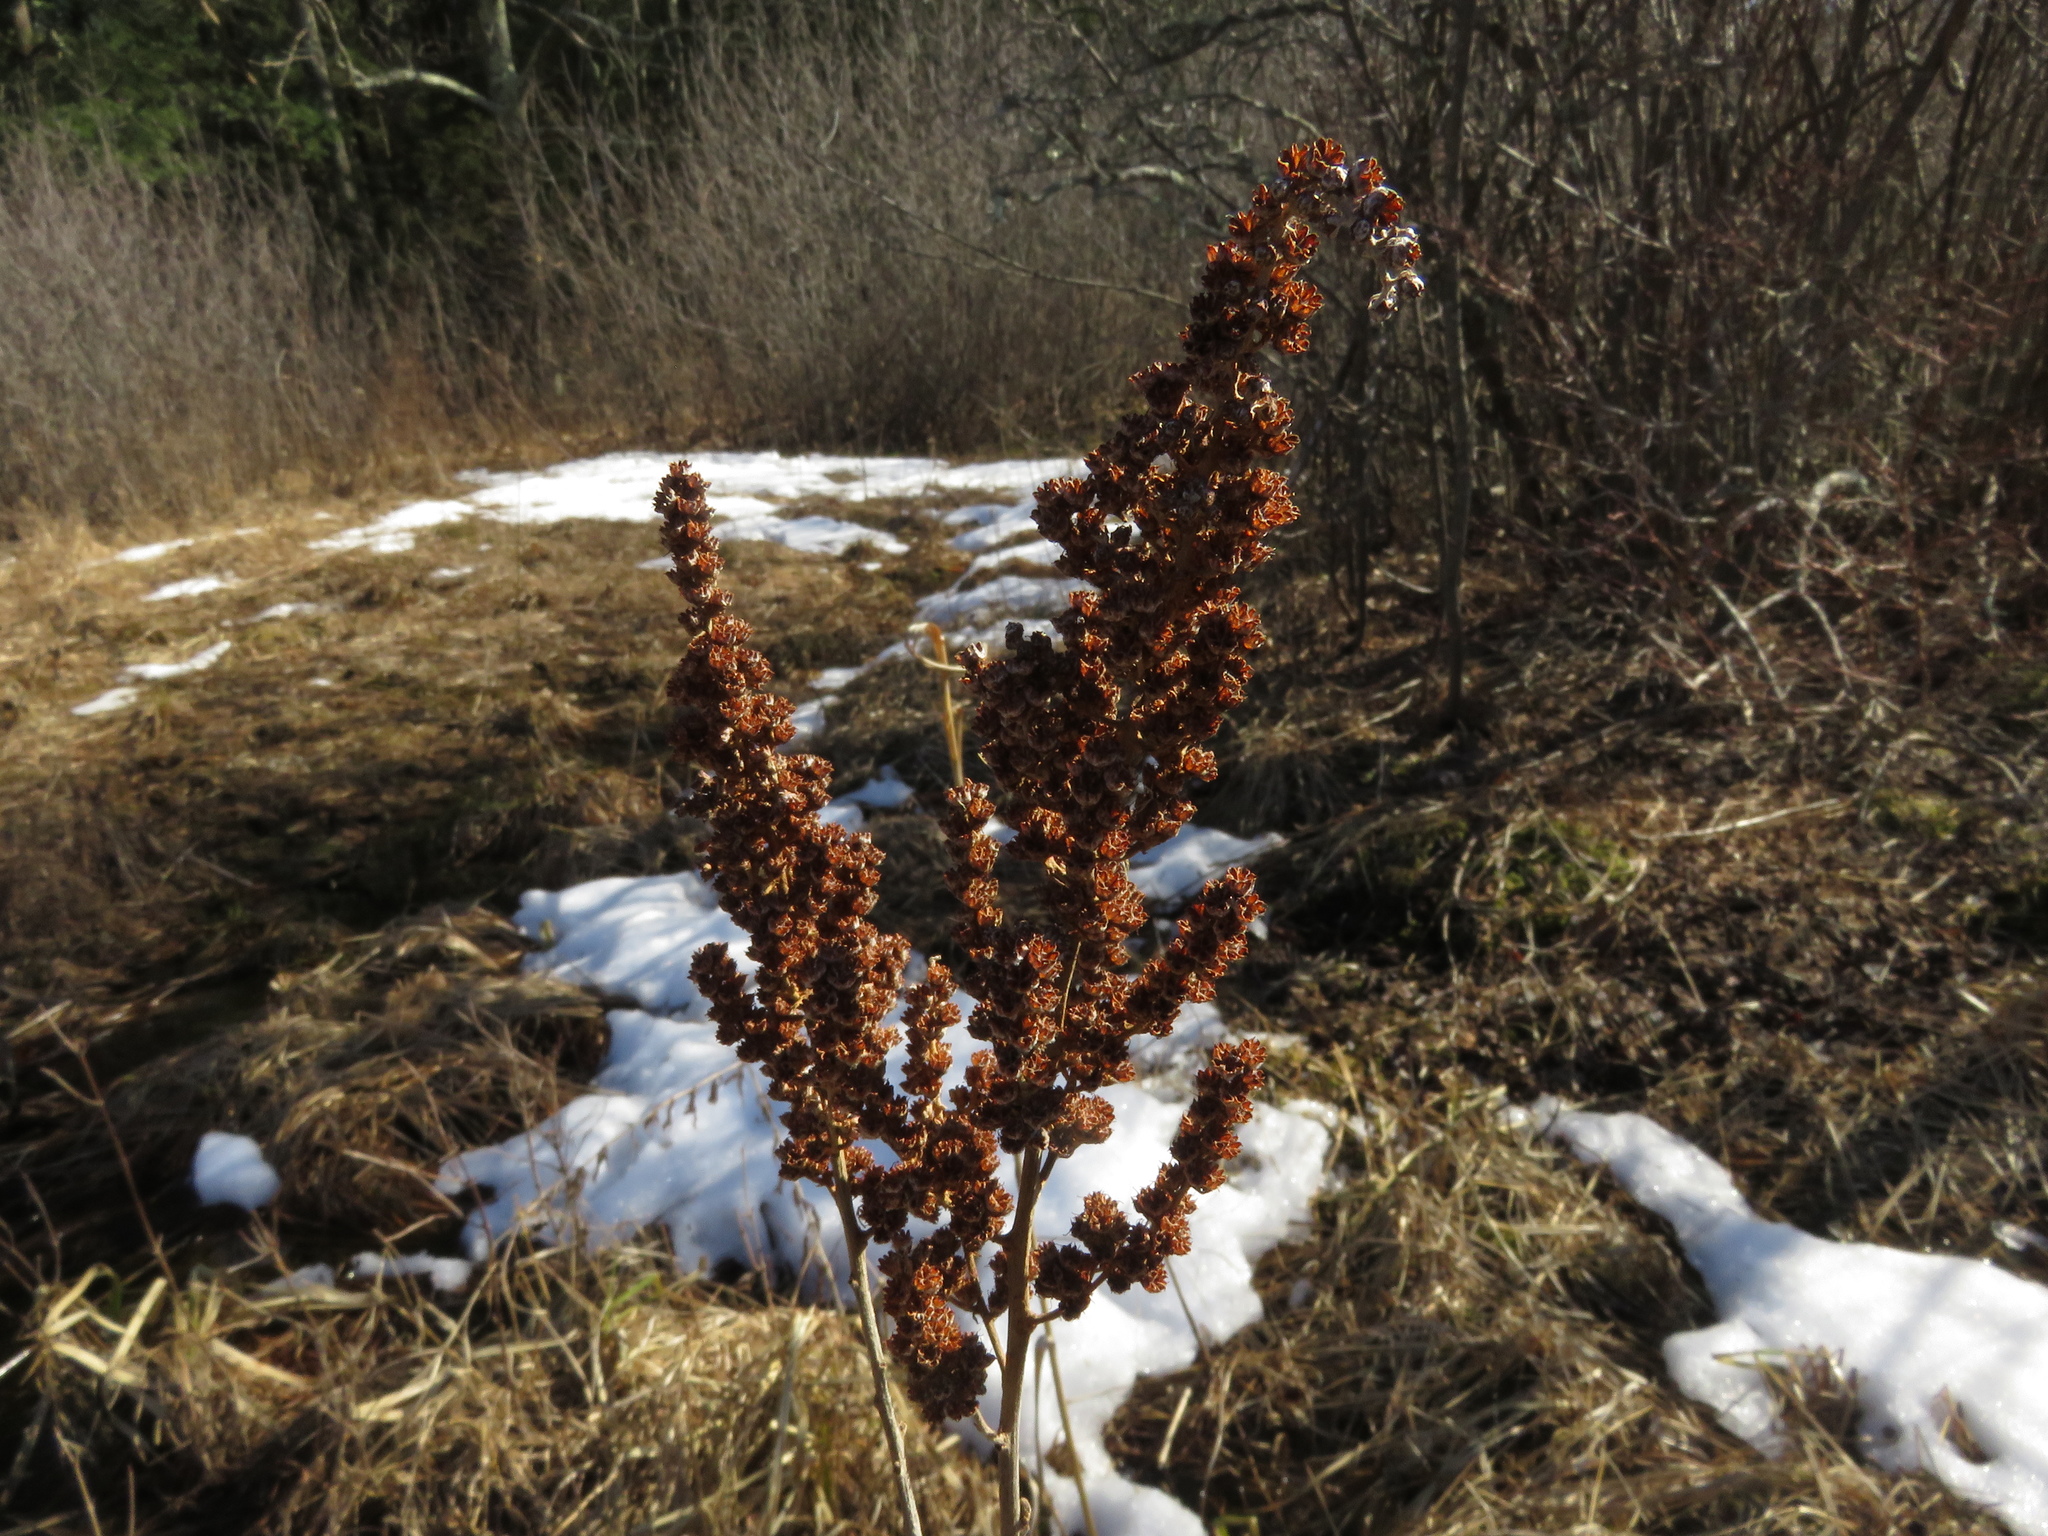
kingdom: Plantae
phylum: Tracheophyta
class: Magnoliopsida
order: Rosales
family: Rosaceae
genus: Spiraea
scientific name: Spiraea tomentosa
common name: Hardhack
